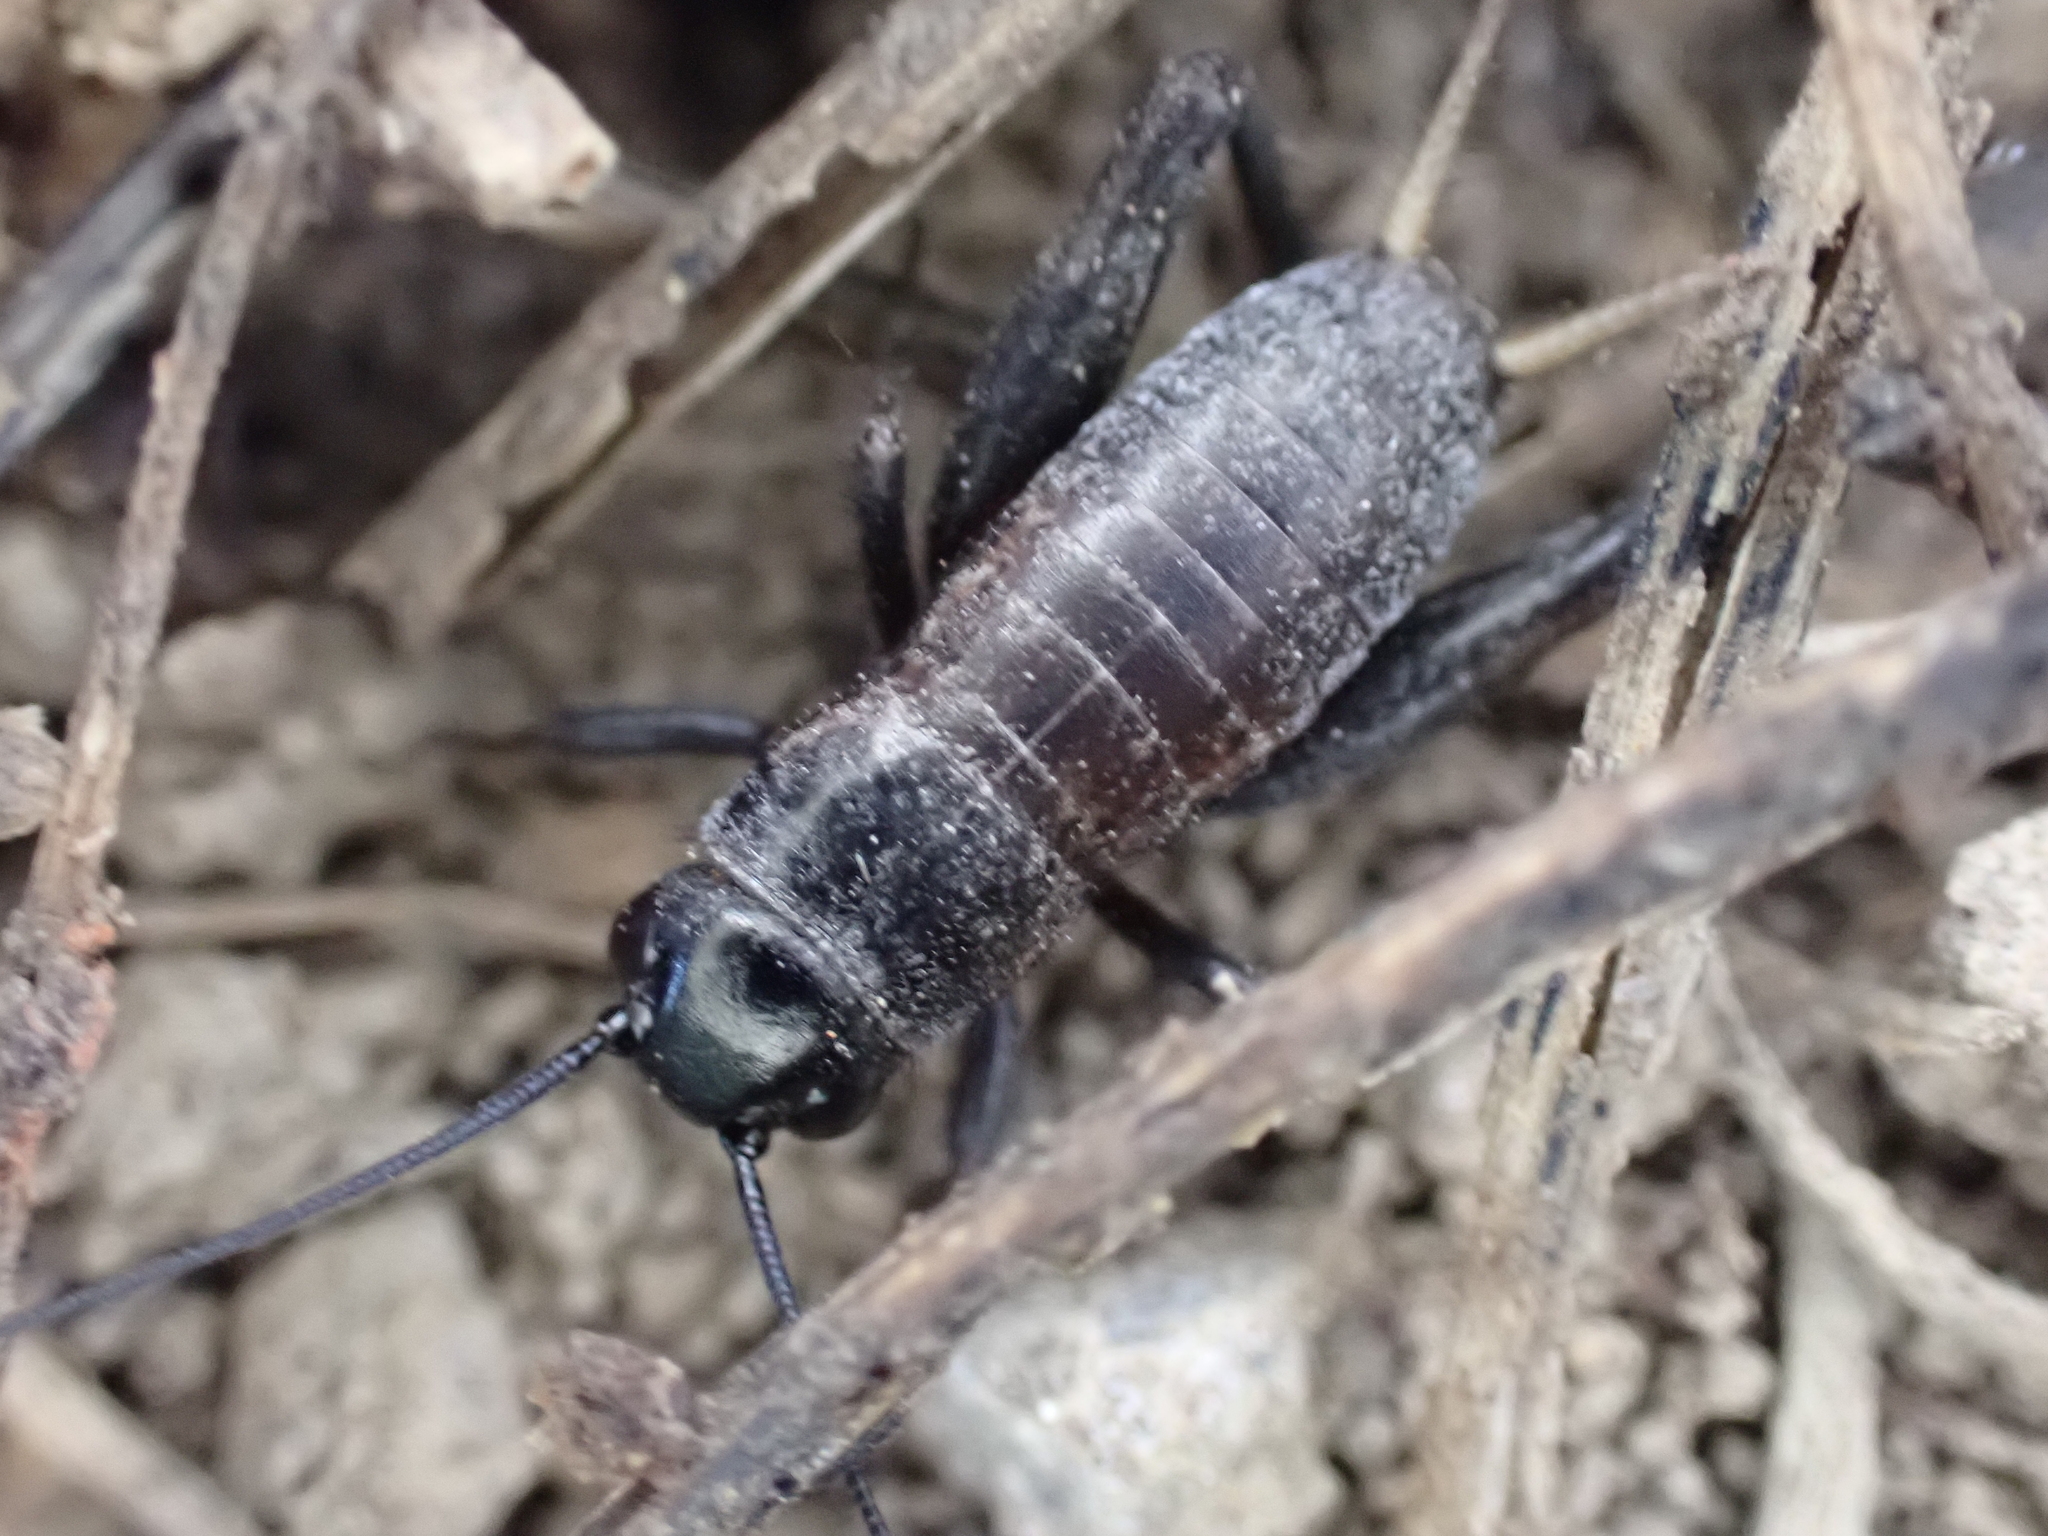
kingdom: Animalia
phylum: Arthropoda
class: Insecta
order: Orthoptera
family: Gryllidae
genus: Gryllus
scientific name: Gryllus pennsylvanicus
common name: Fall field cricket
